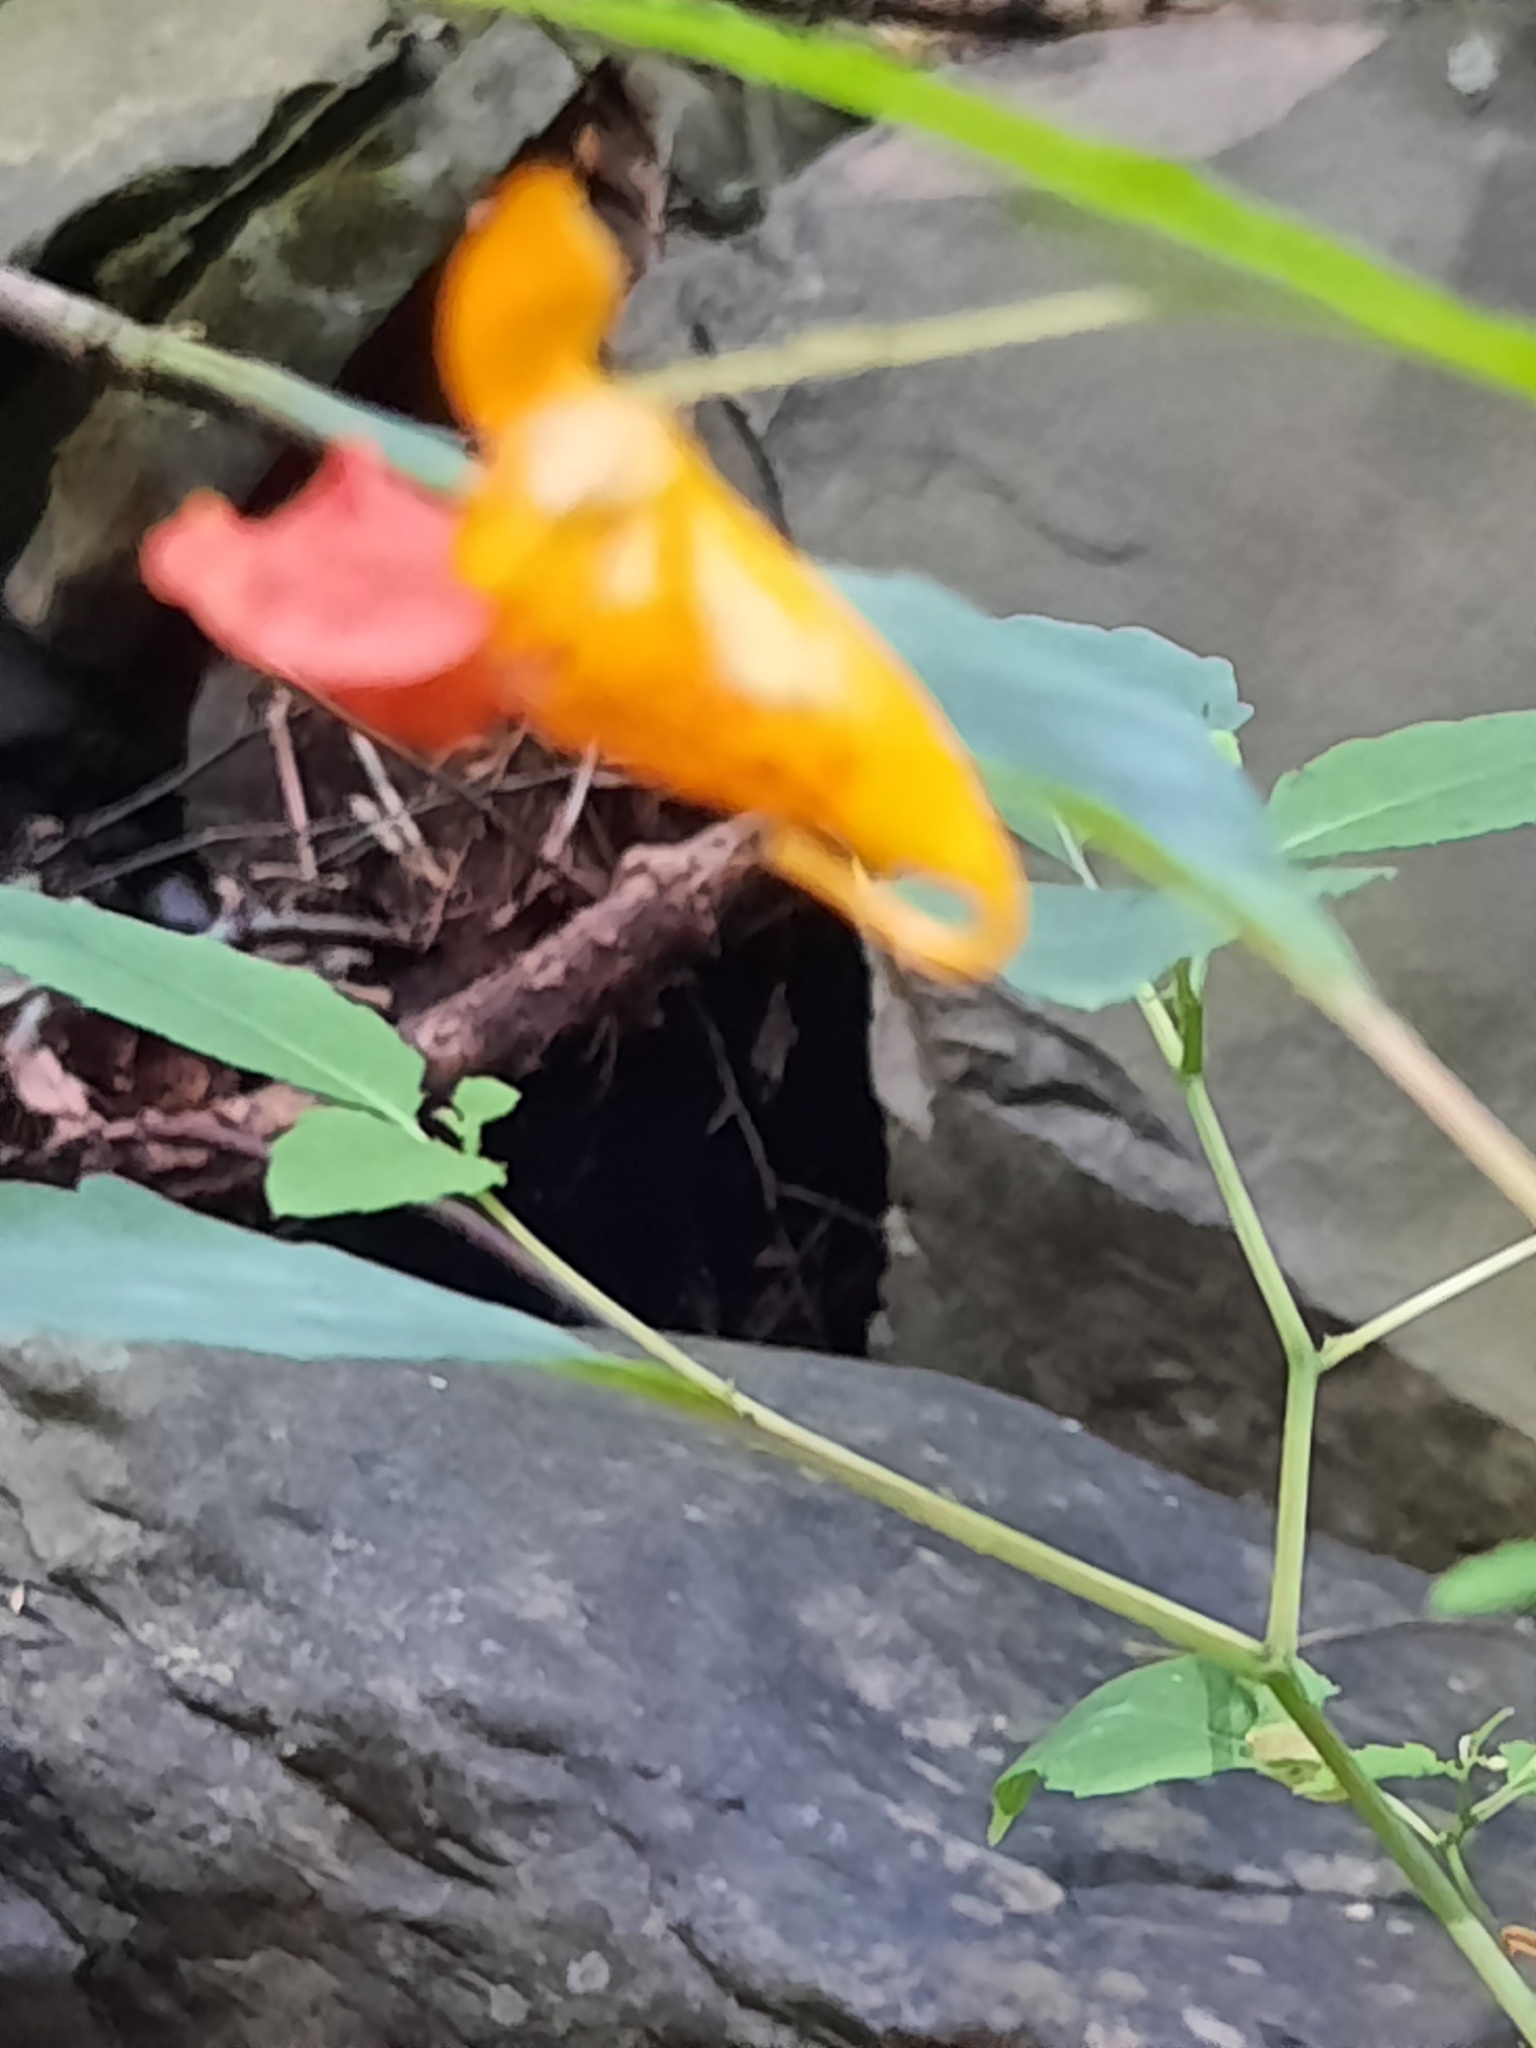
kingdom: Plantae
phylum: Tracheophyta
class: Magnoliopsida
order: Ericales
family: Balsaminaceae
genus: Impatiens
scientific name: Impatiens capensis
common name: Orange balsam
